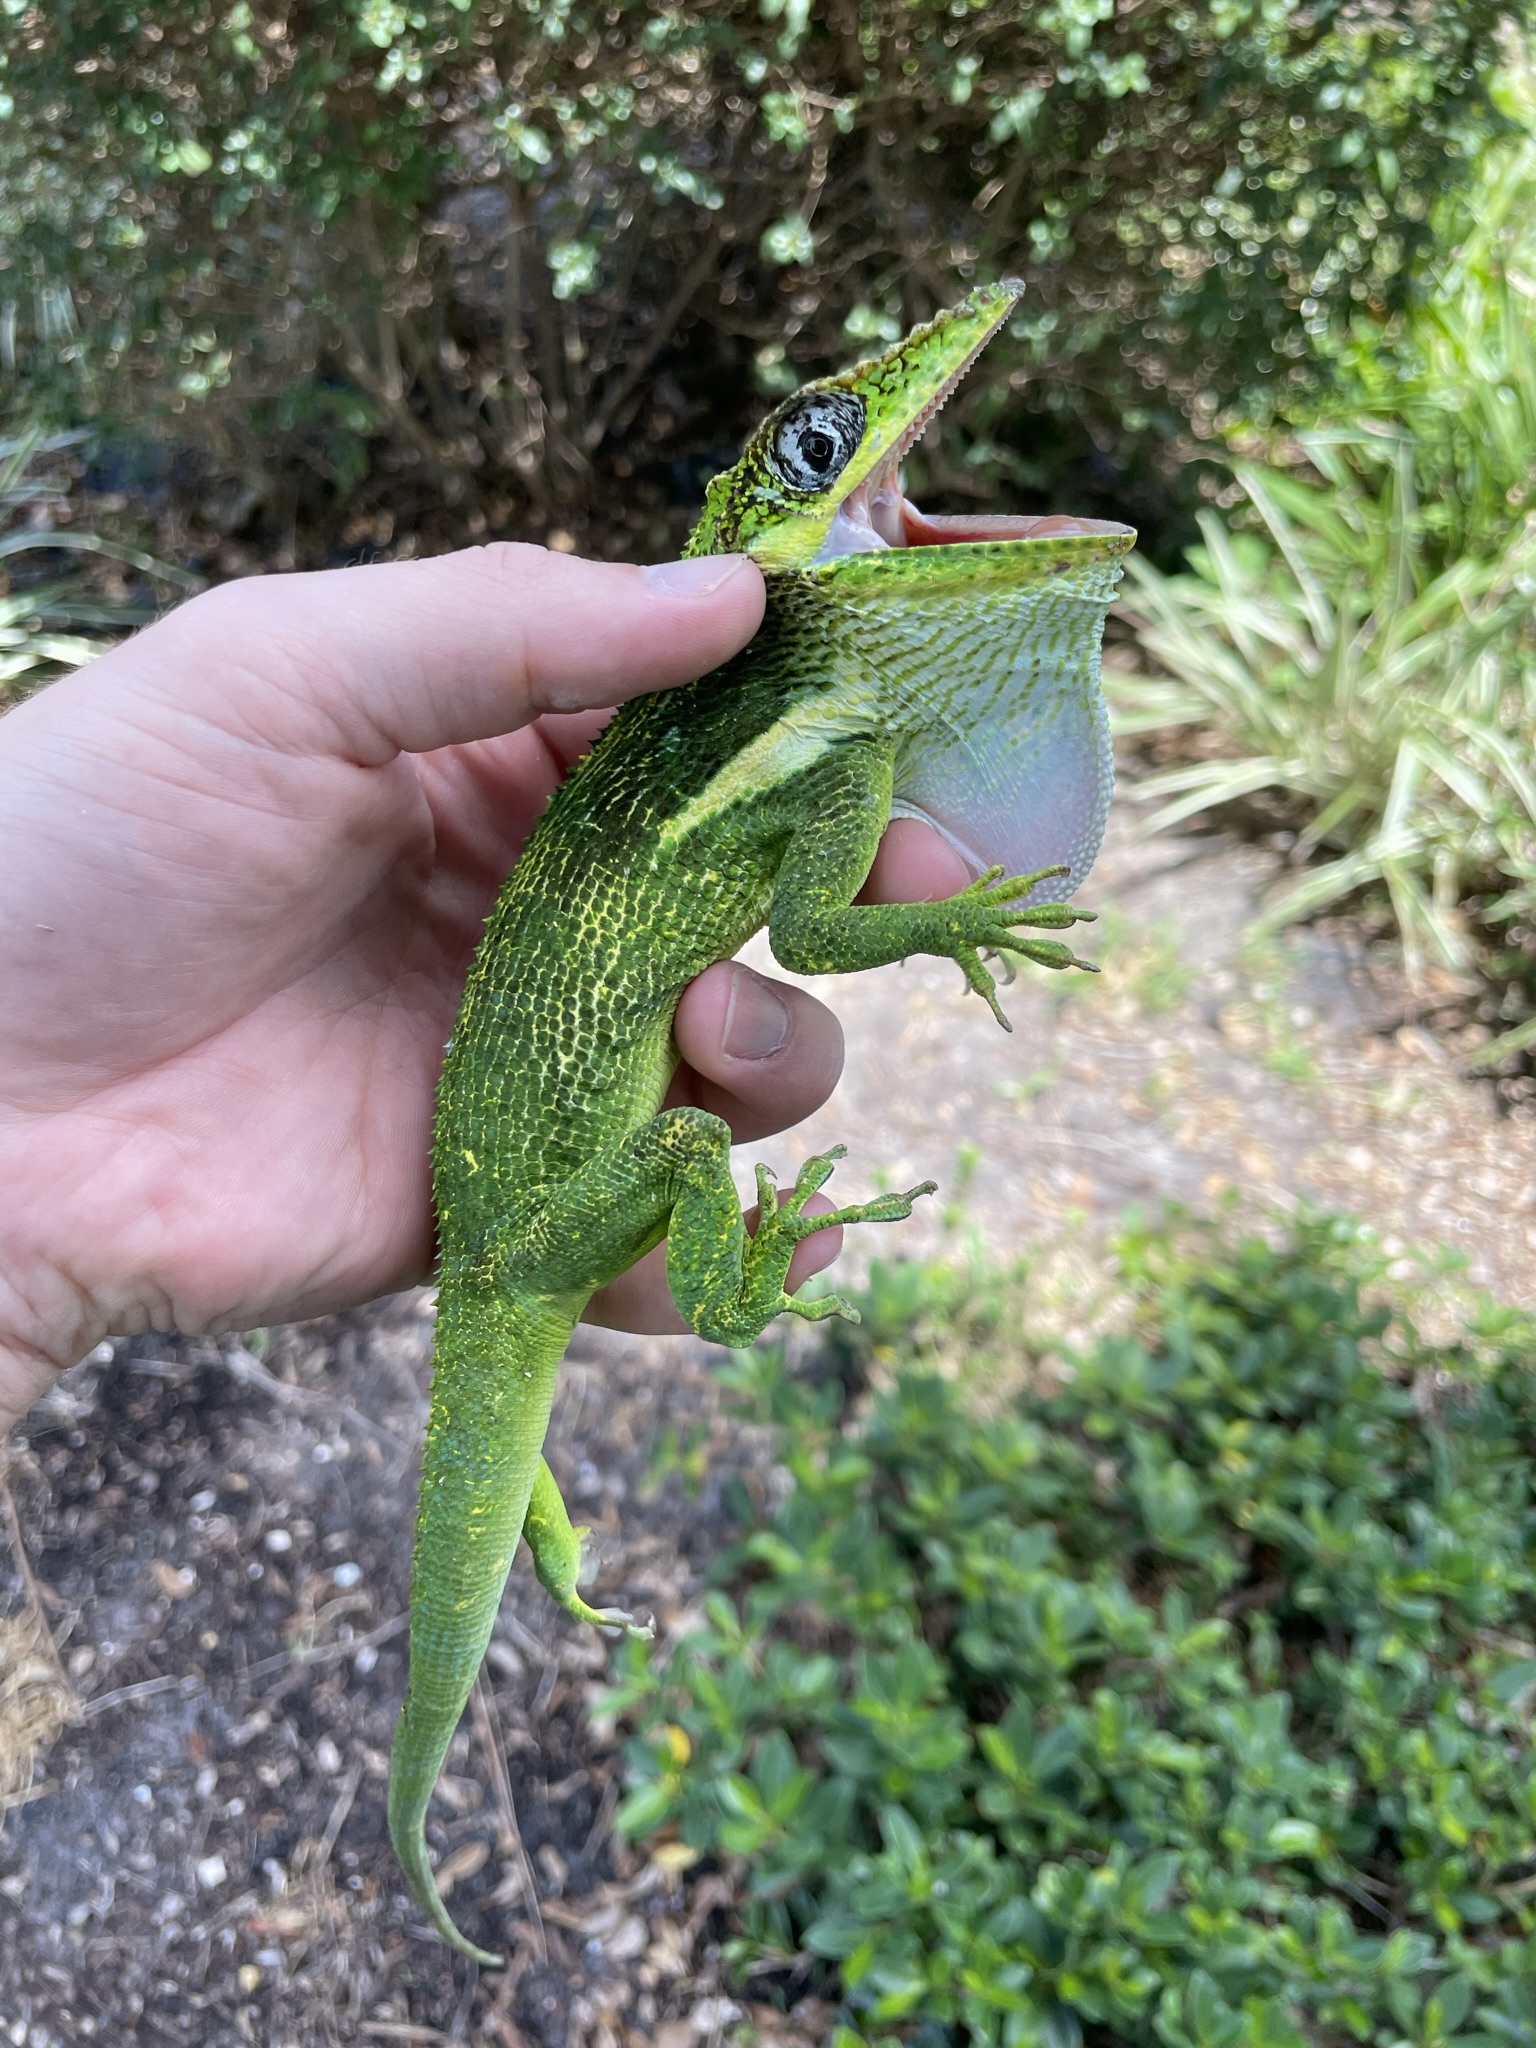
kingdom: Animalia
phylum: Chordata
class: Squamata
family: Dactyloidae
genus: Anolis
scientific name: Anolis equestris
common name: Knight anole
